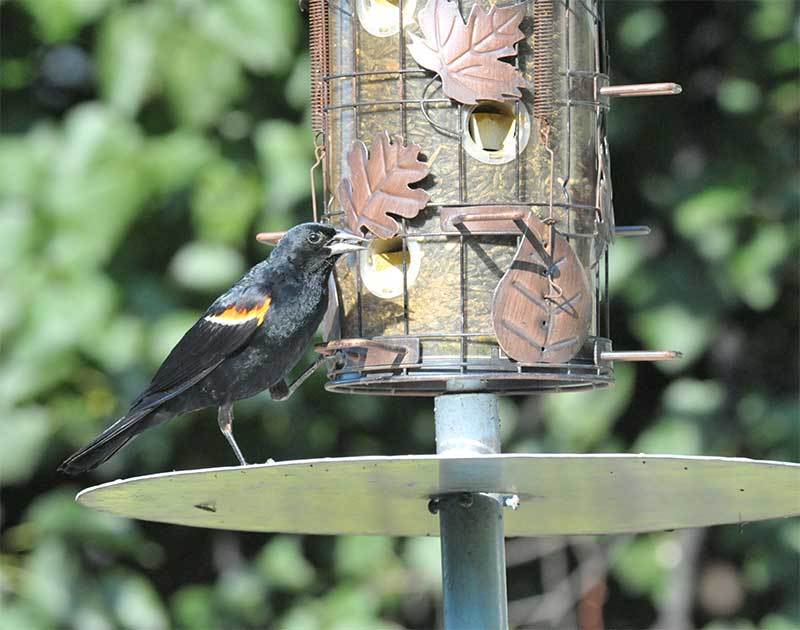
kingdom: Animalia
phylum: Chordata
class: Aves
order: Passeriformes
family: Icteridae
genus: Agelaius
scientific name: Agelaius phoeniceus
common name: Red-winged blackbird
